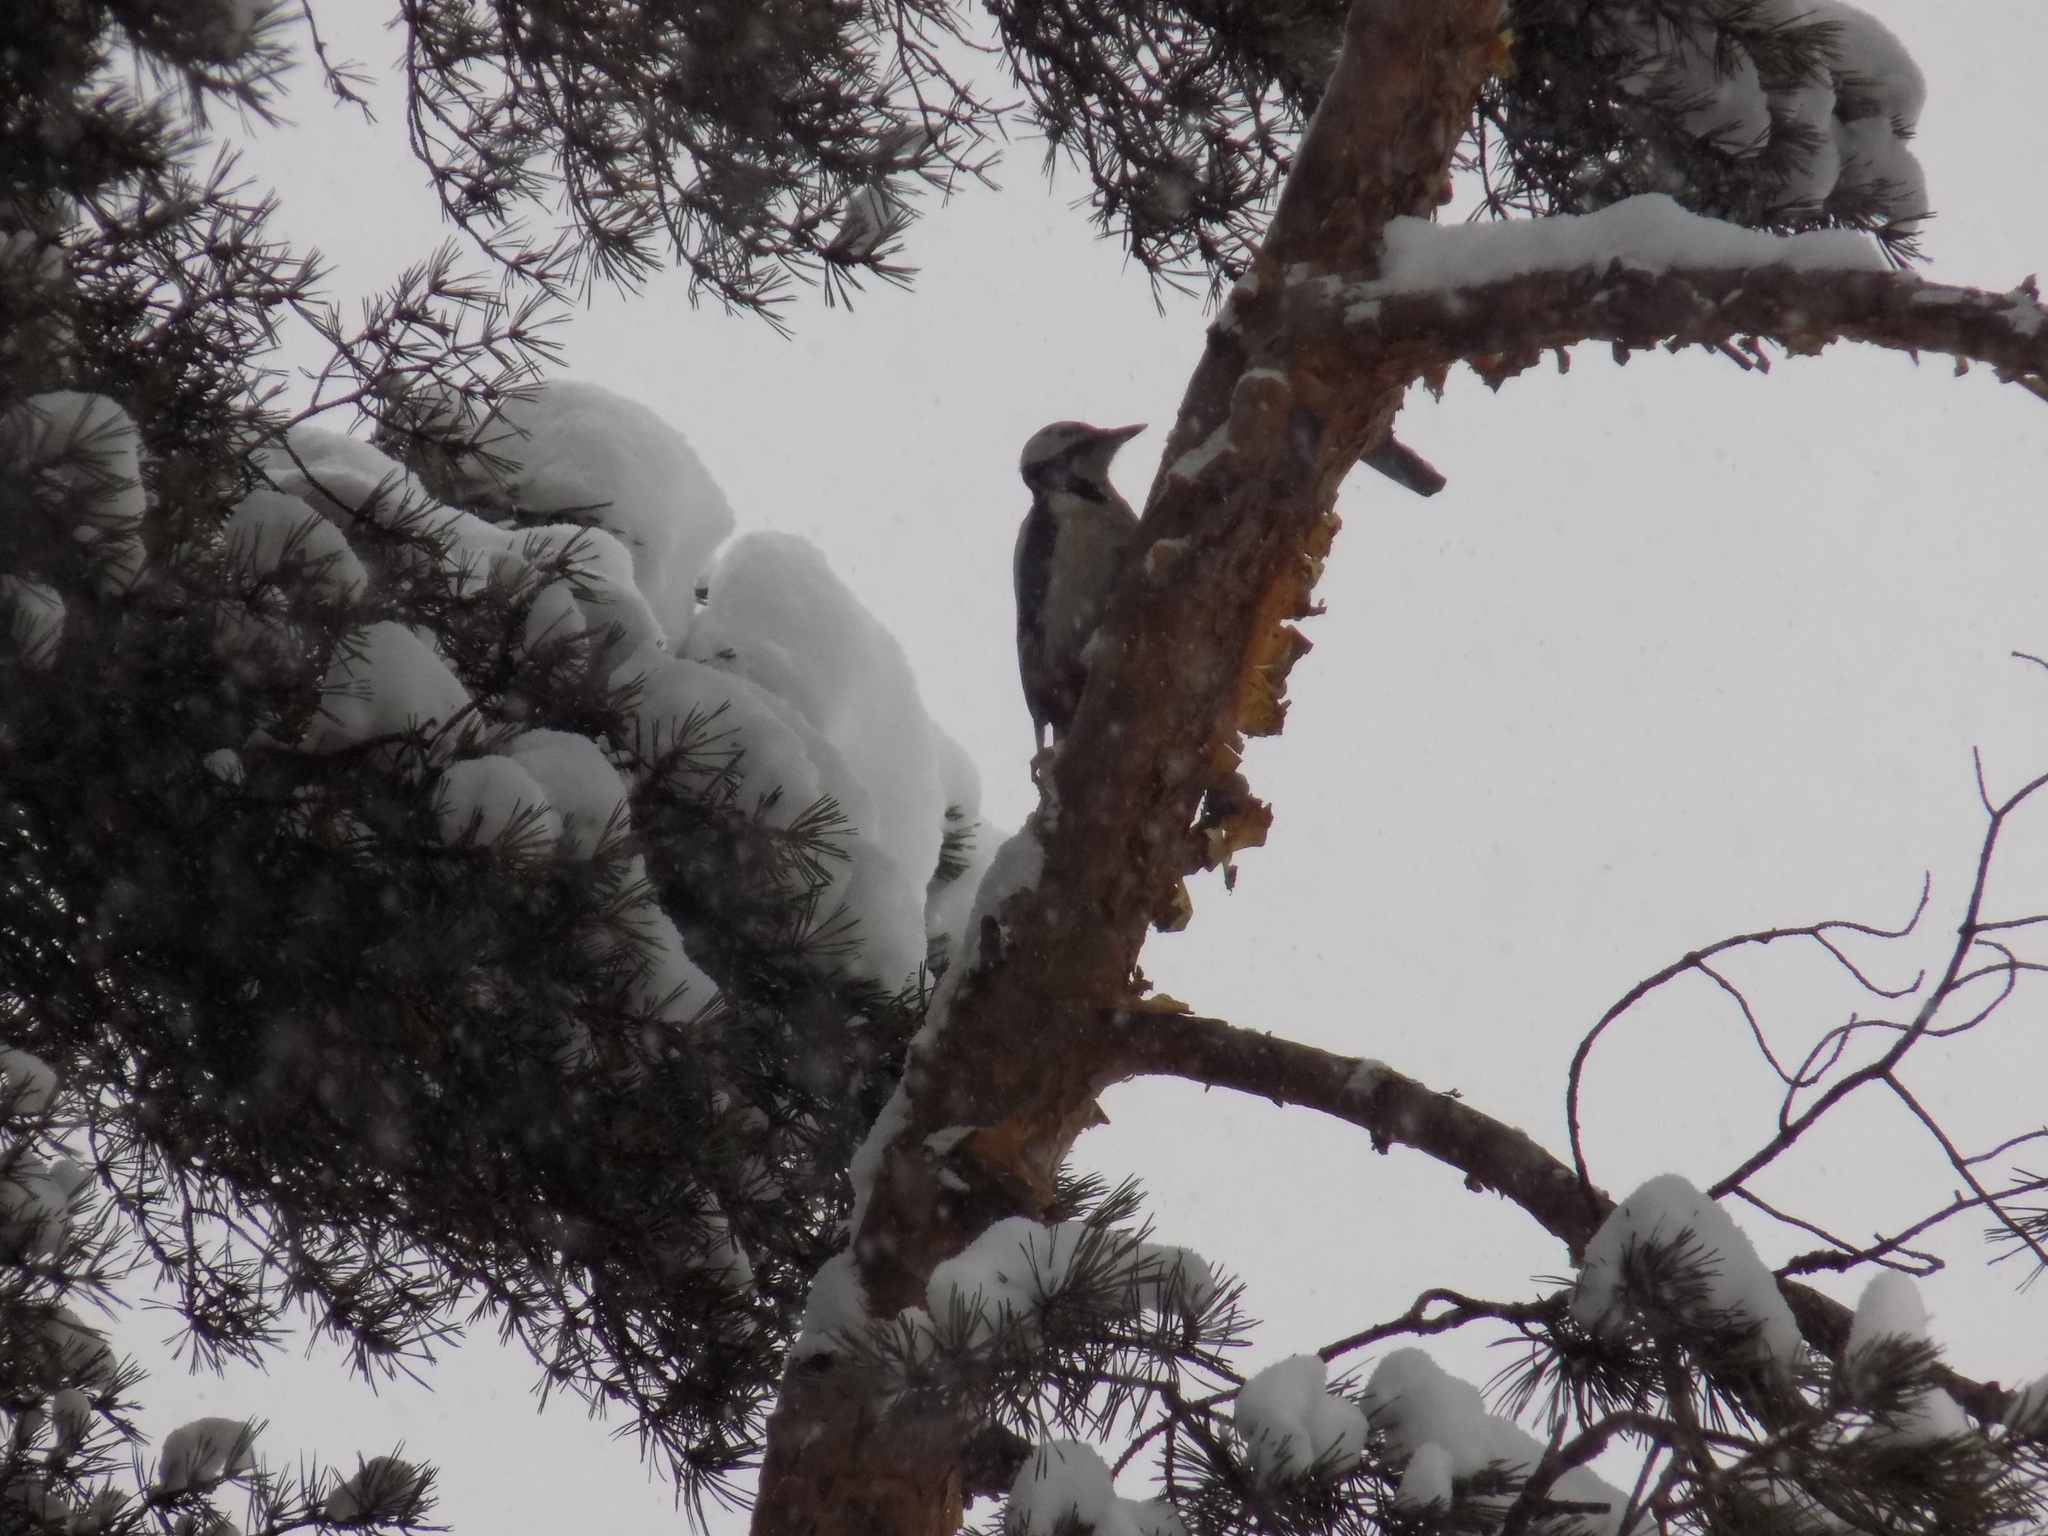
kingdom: Animalia
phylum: Chordata
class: Aves
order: Piciformes
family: Picidae
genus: Dendrocopos
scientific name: Dendrocopos major
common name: Great spotted woodpecker
